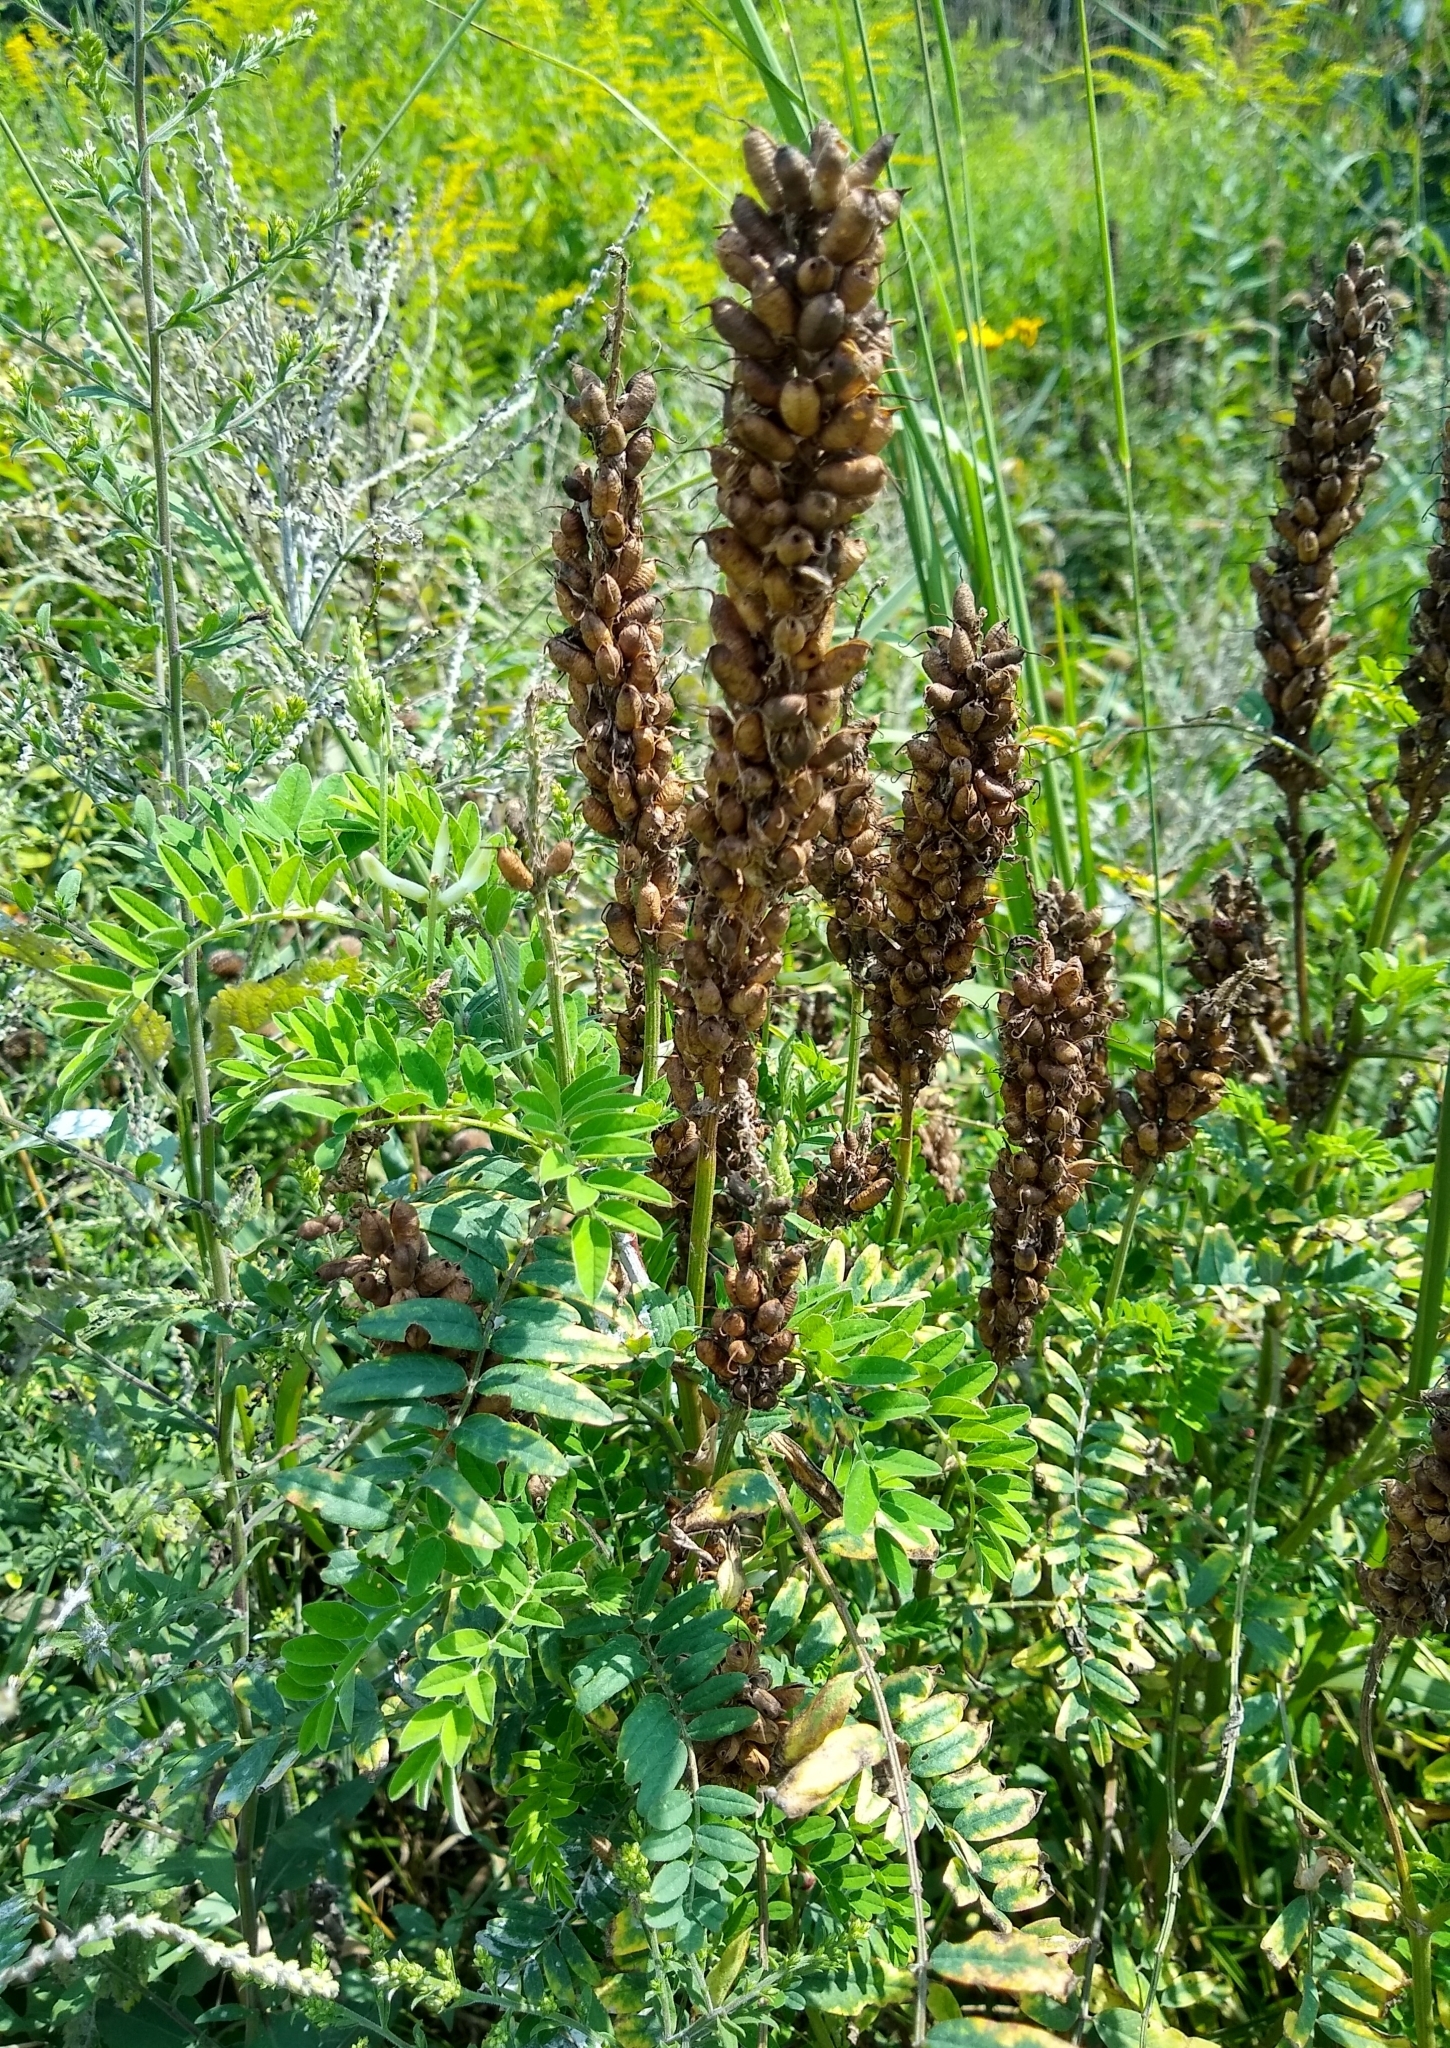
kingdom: Plantae
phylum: Tracheophyta
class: Magnoliopsida
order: Fabales
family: Fabaceae
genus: Astragalus
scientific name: Astragalus canadensis
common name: Canada milk-vetch
